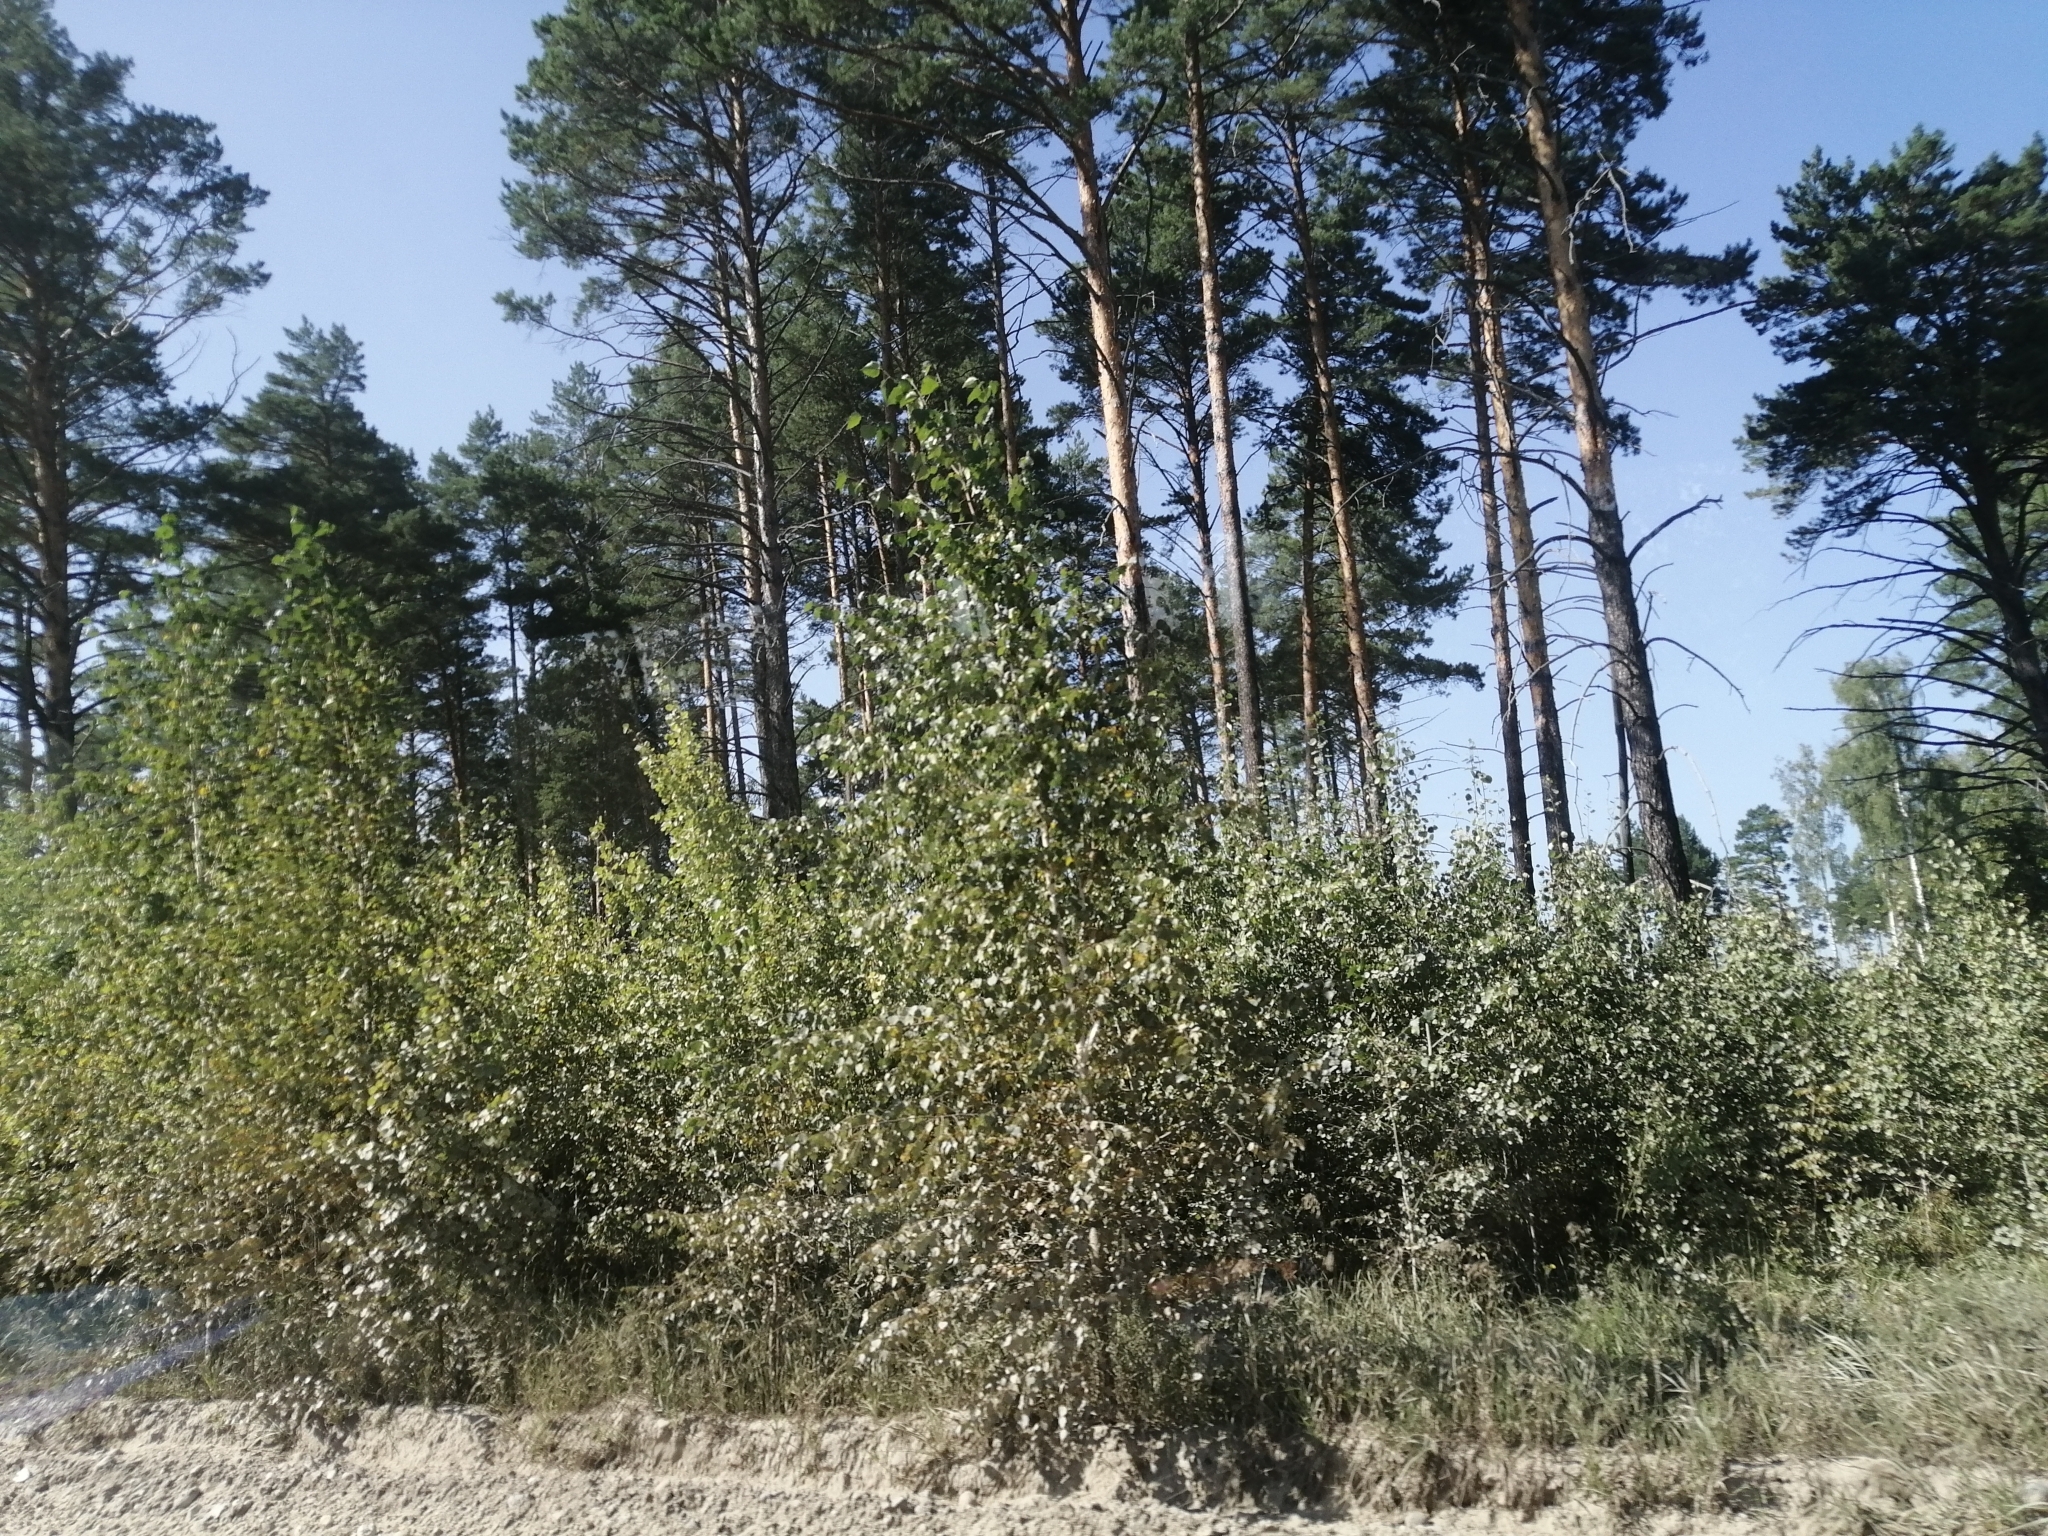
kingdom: Plantae
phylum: Tracheophyta
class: Pinopsida
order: Pinales
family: Pinaceae
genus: Pinus
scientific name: Pinus sylvestris
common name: Scots pine
